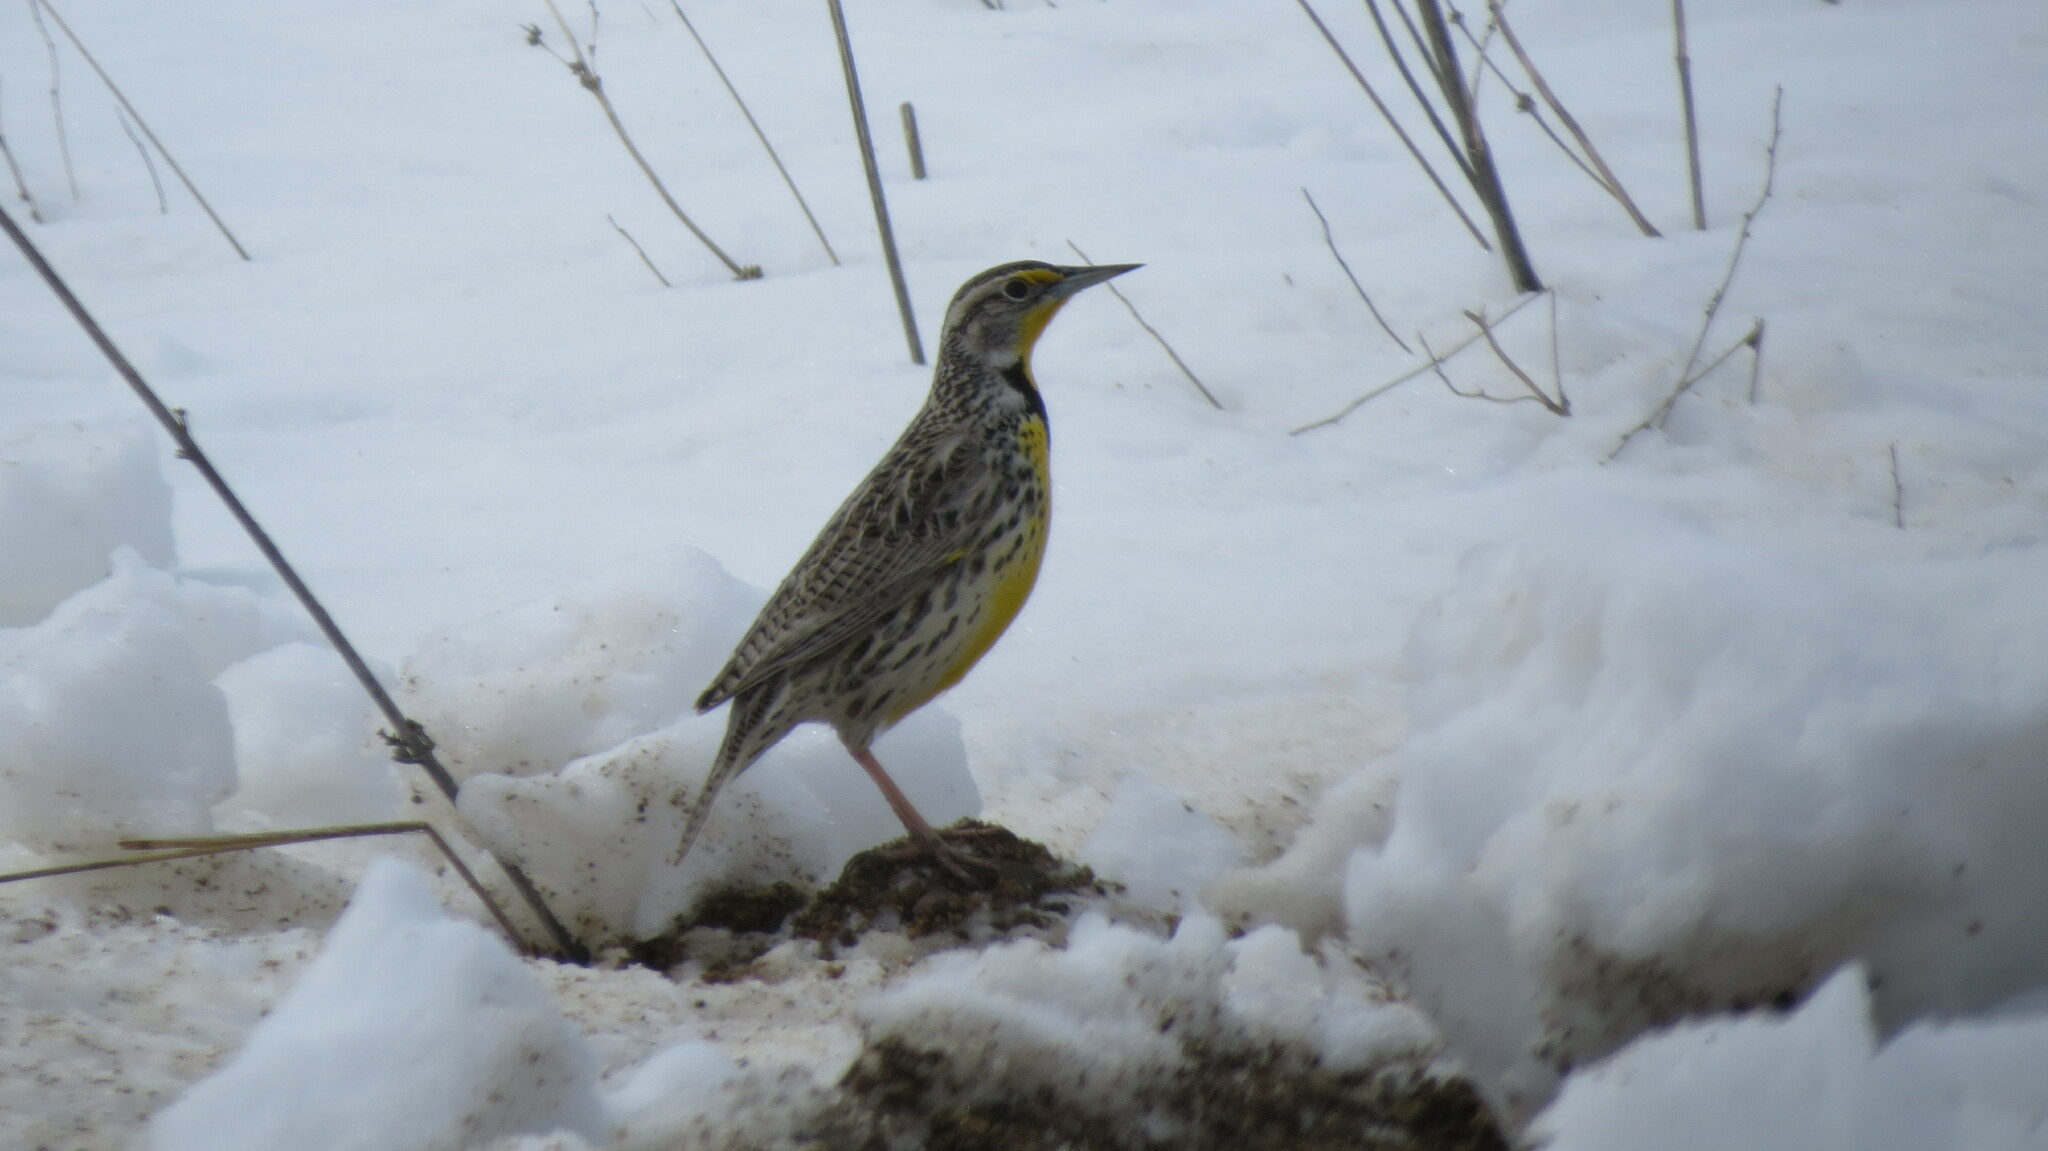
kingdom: Animalia
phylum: Chordata
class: Aves
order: Passeriformes
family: Icteridae
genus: Sturnella
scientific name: Sturnella neglecta
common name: Western meadowlark
